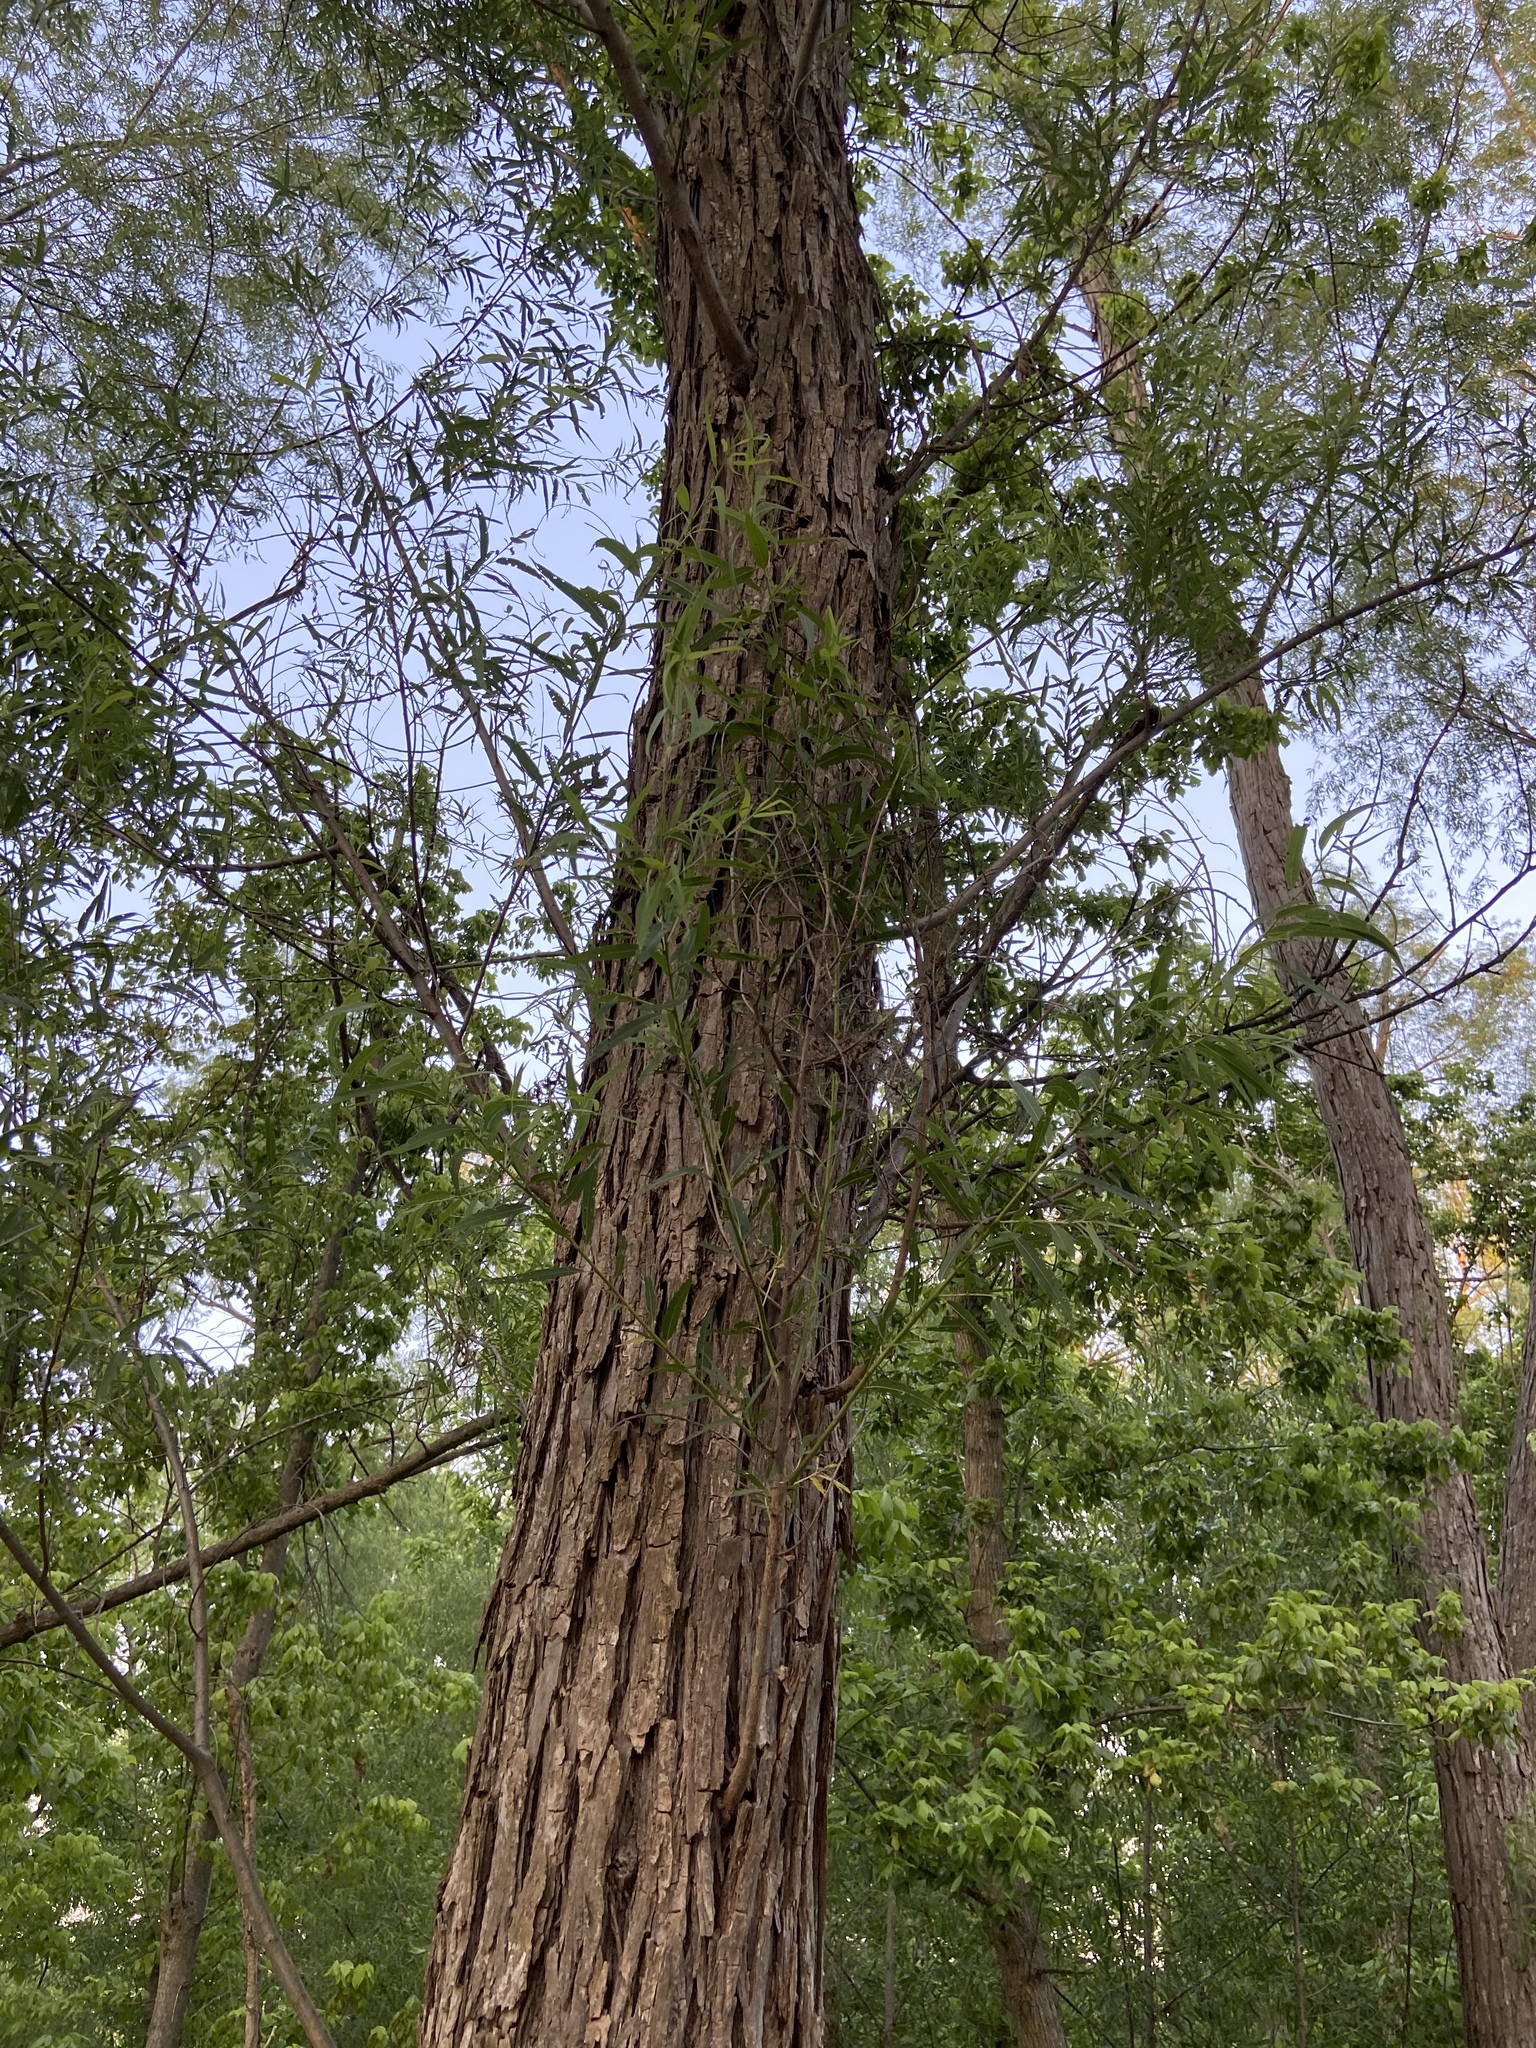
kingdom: Plantae
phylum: Tracheophyta
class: Magnoliopsida
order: Malpighiales
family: Salicaceae
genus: Salix
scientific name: Salix nigra
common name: Black willow
